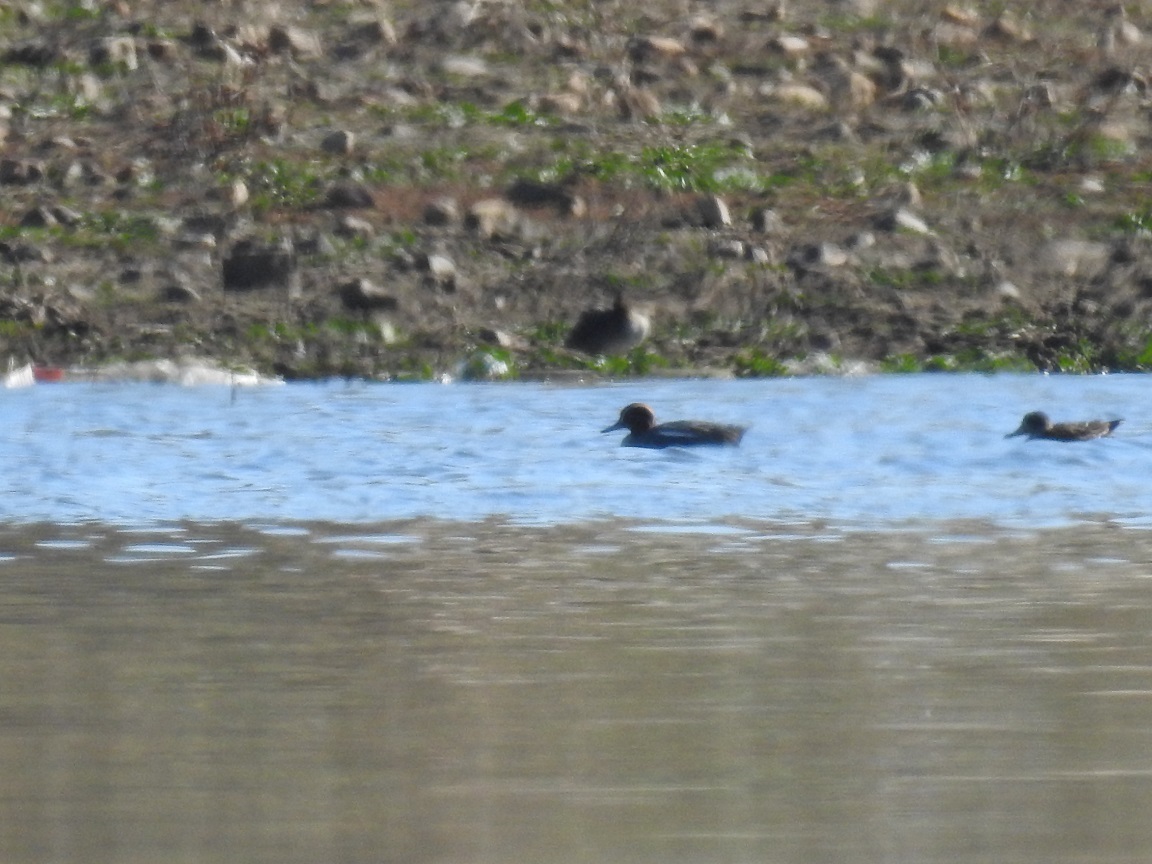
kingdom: Animalia
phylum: Chordata
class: Aves
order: Anseriformes
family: Anatidae
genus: Anas
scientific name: Anas crecca
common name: Eurasian teal
